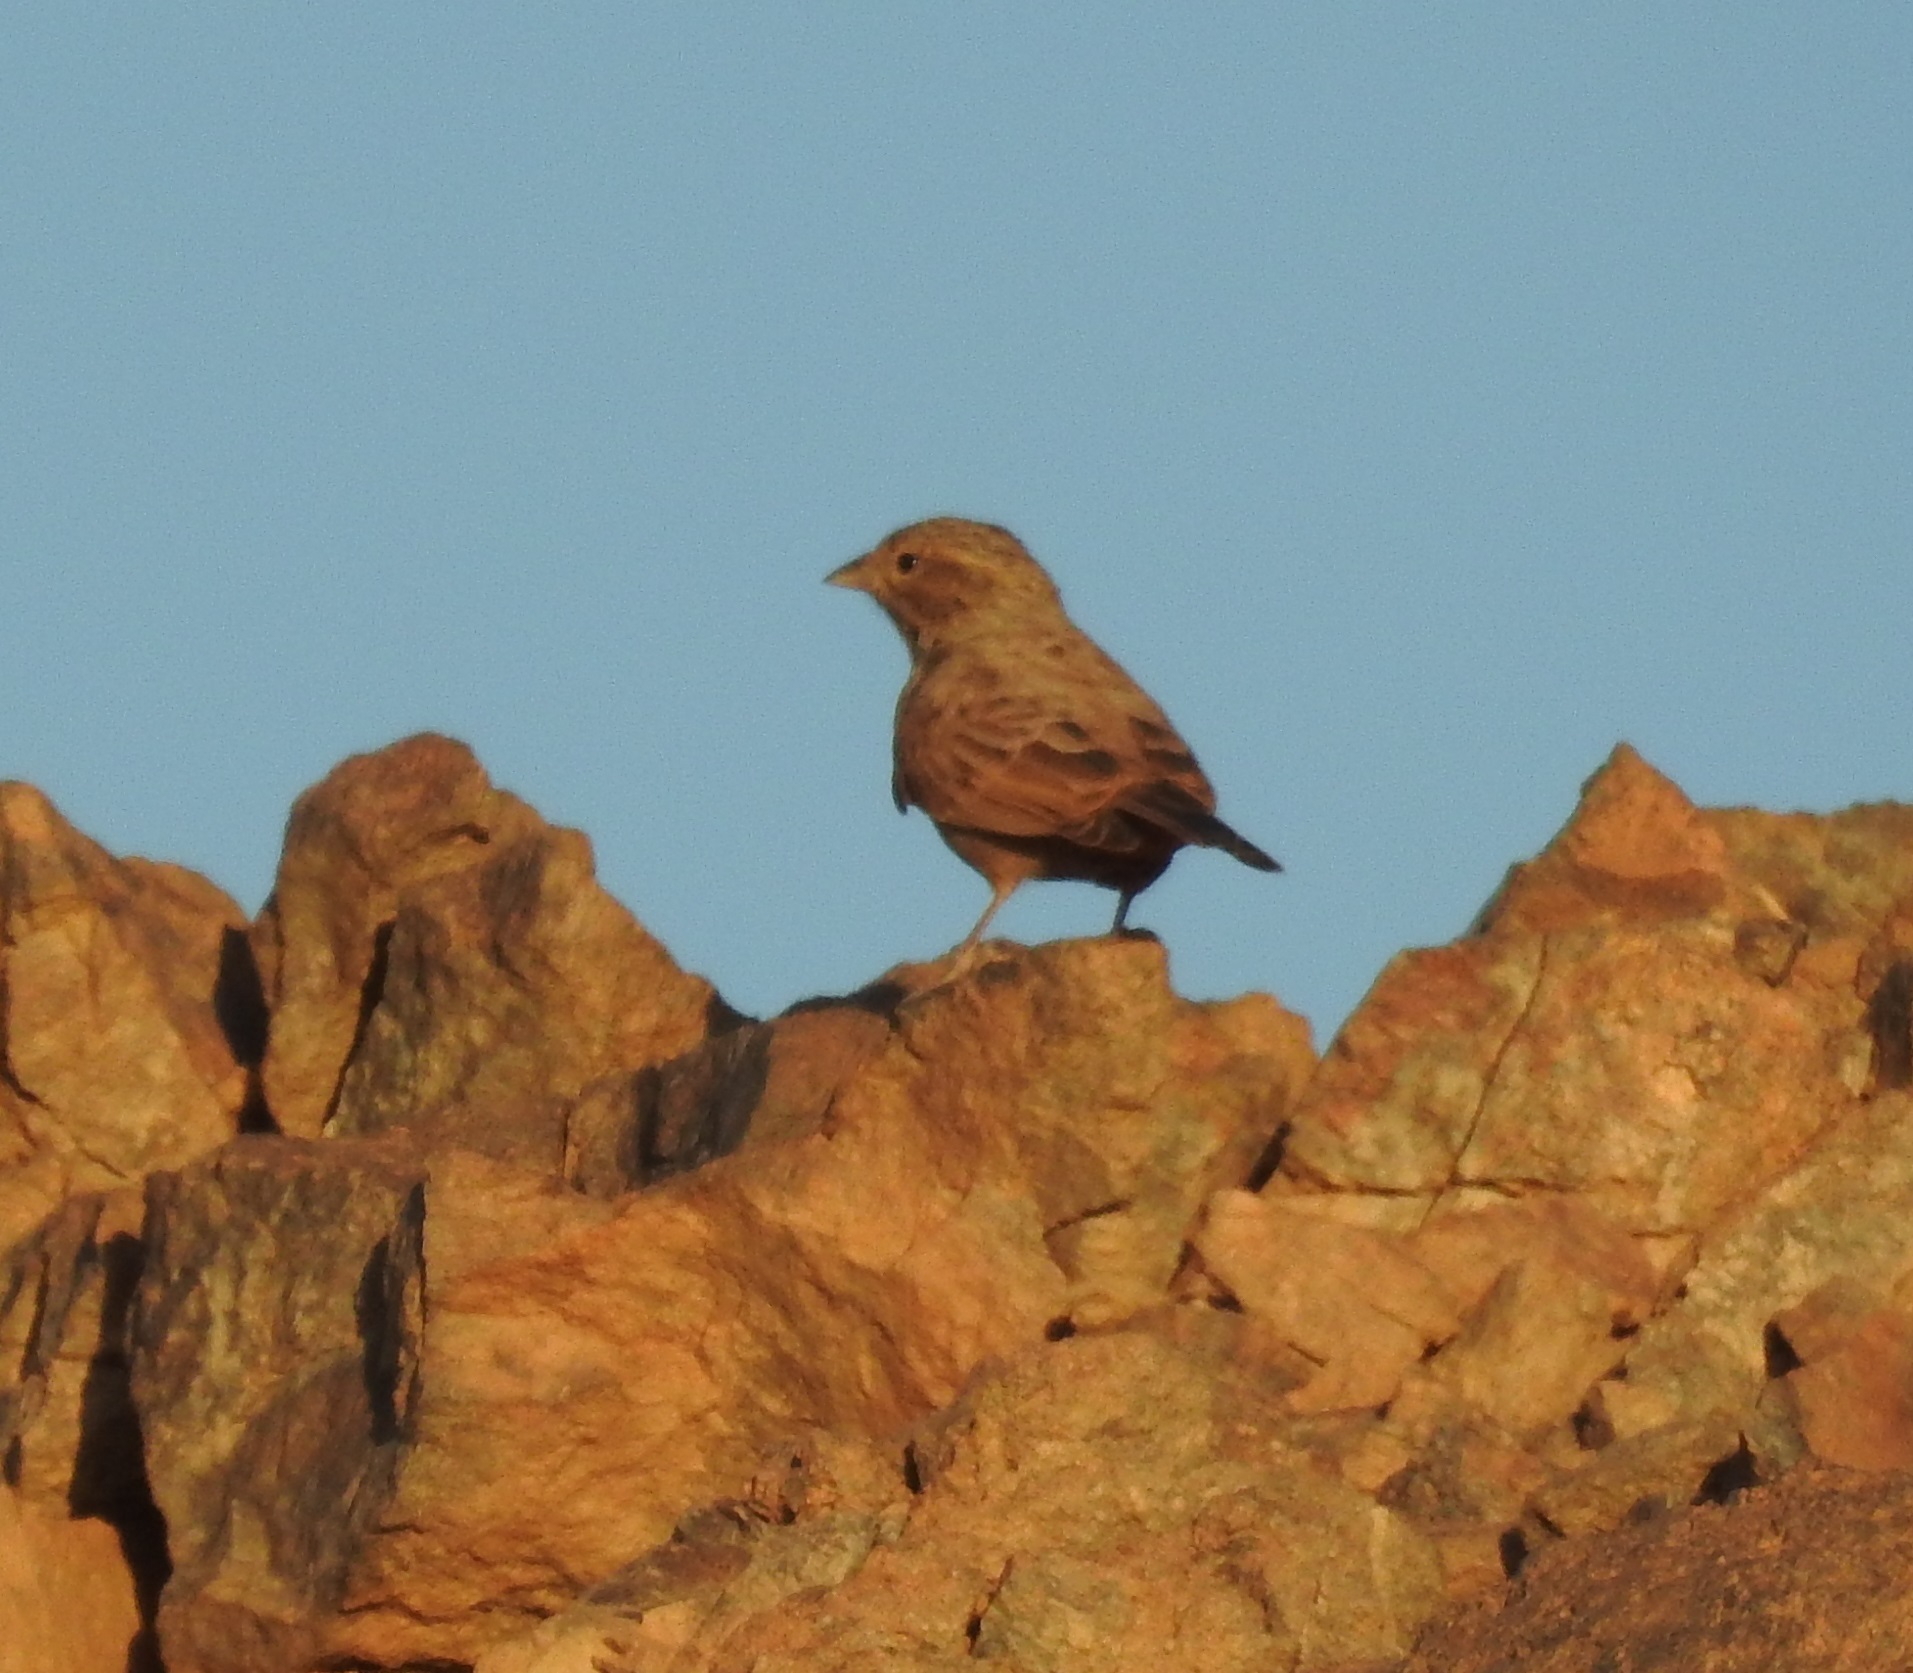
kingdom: Animalia
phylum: Chordata
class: Aves
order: Passeriformes
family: Emberizidae
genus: Emberiza
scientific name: Emberiza sahari
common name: House bunting
